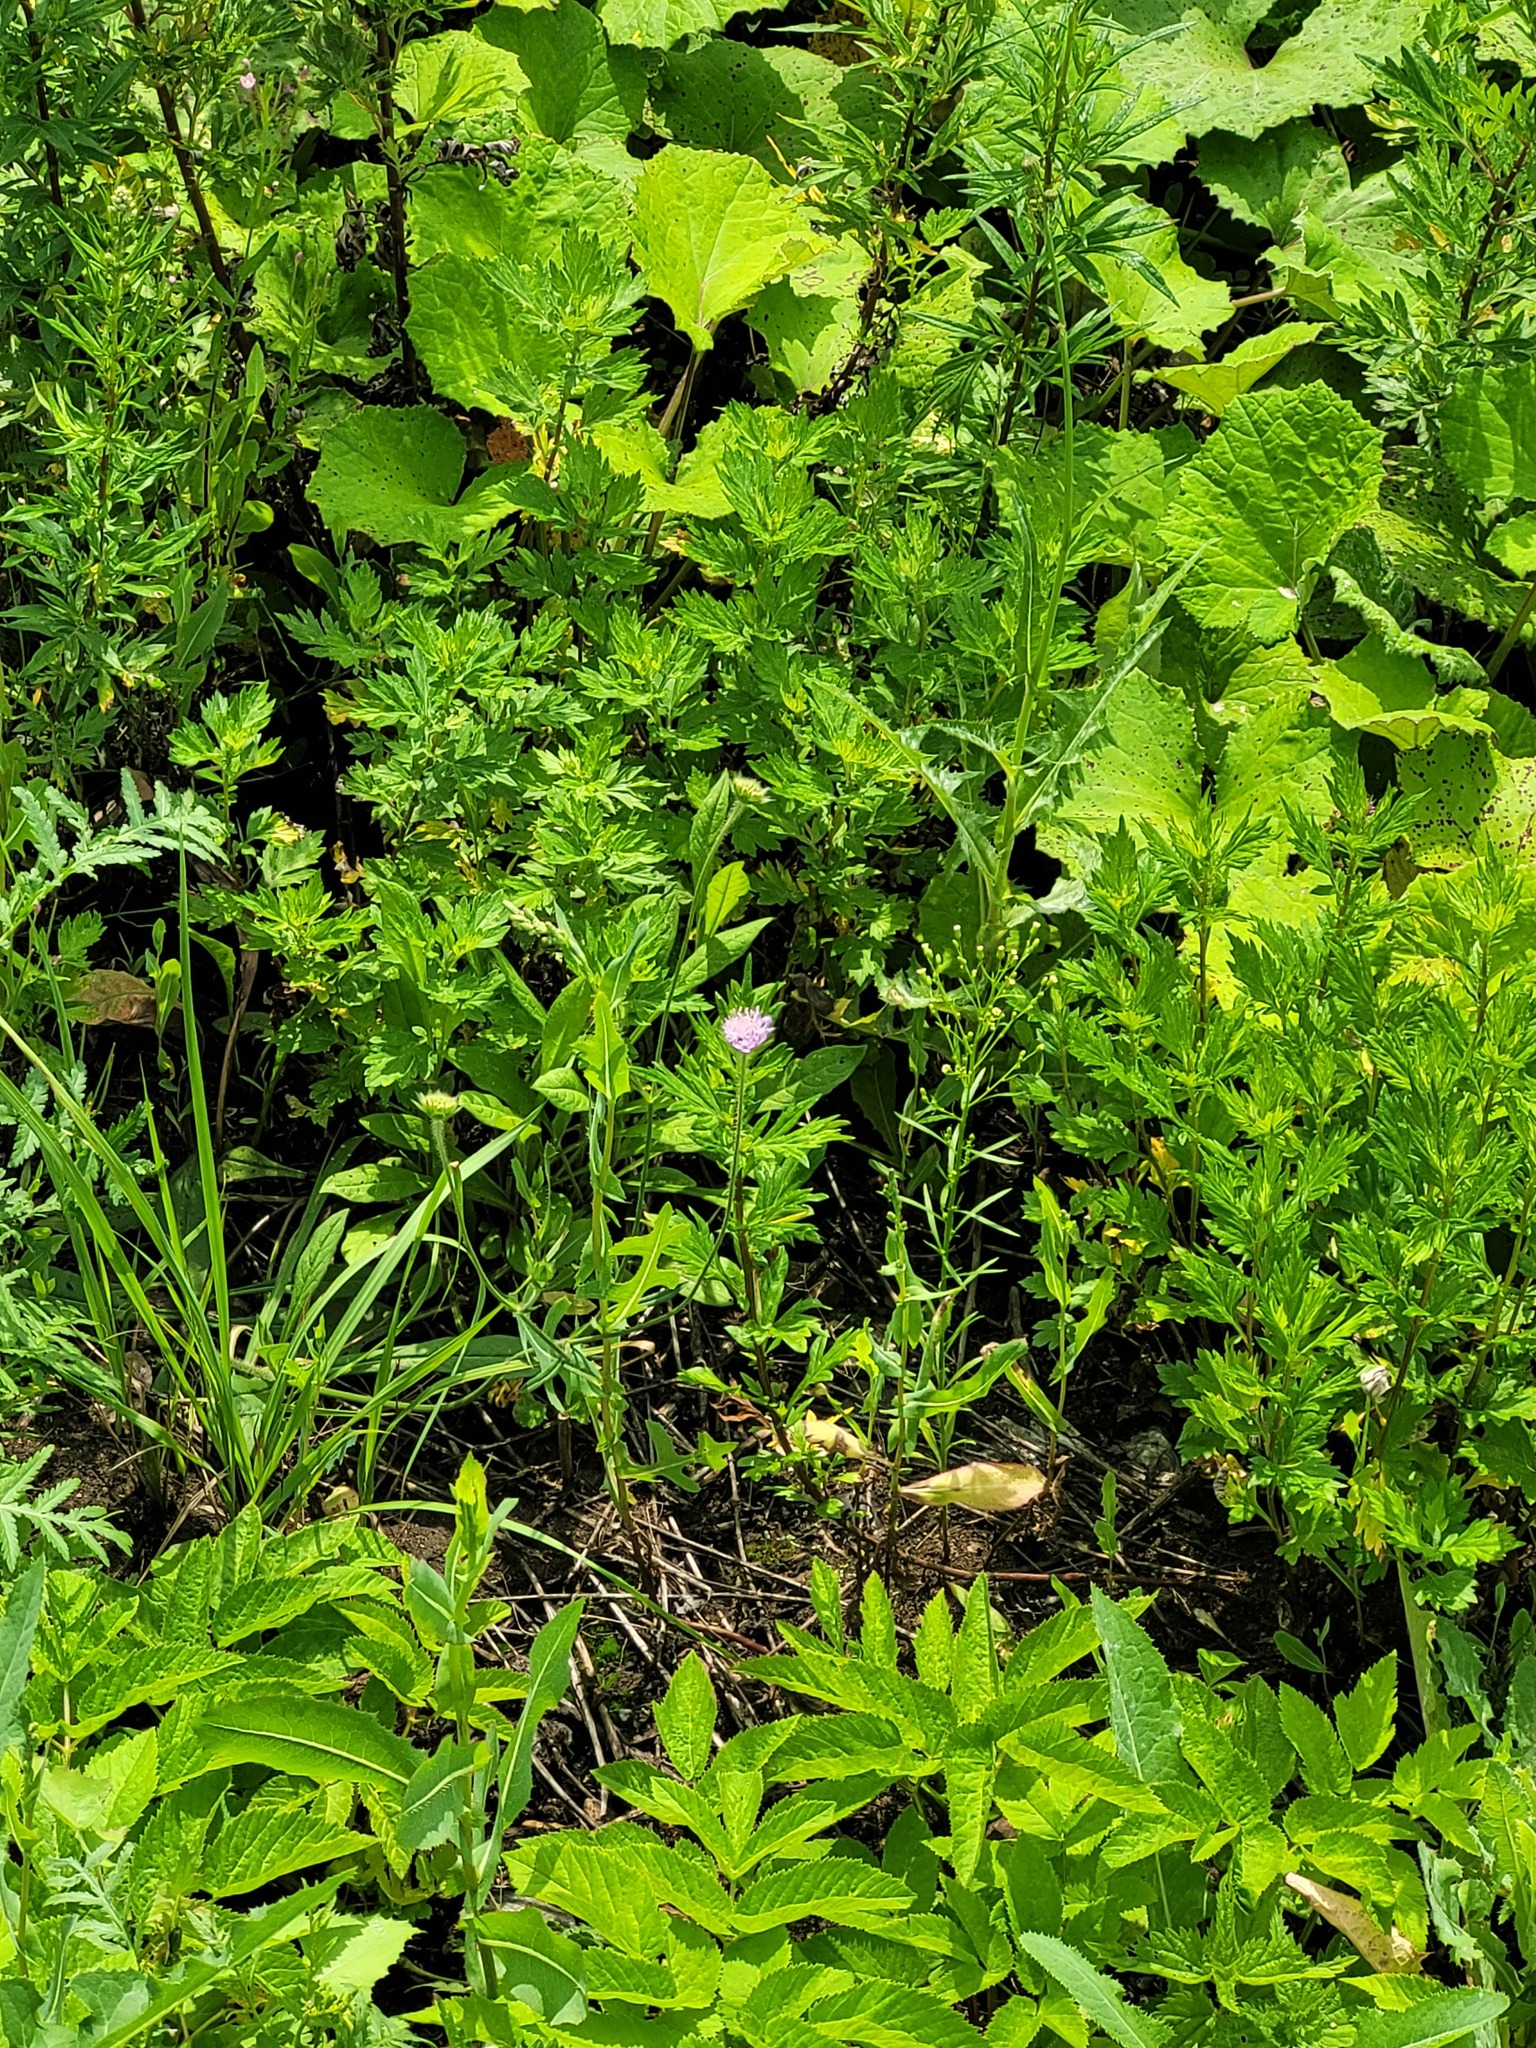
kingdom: Plantae
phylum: Tracheophyta
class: Magnoliopsida
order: Dipsacales
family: Caprifoliaceae
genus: Knautia
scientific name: Knautia arvensis
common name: Field scabiosa
